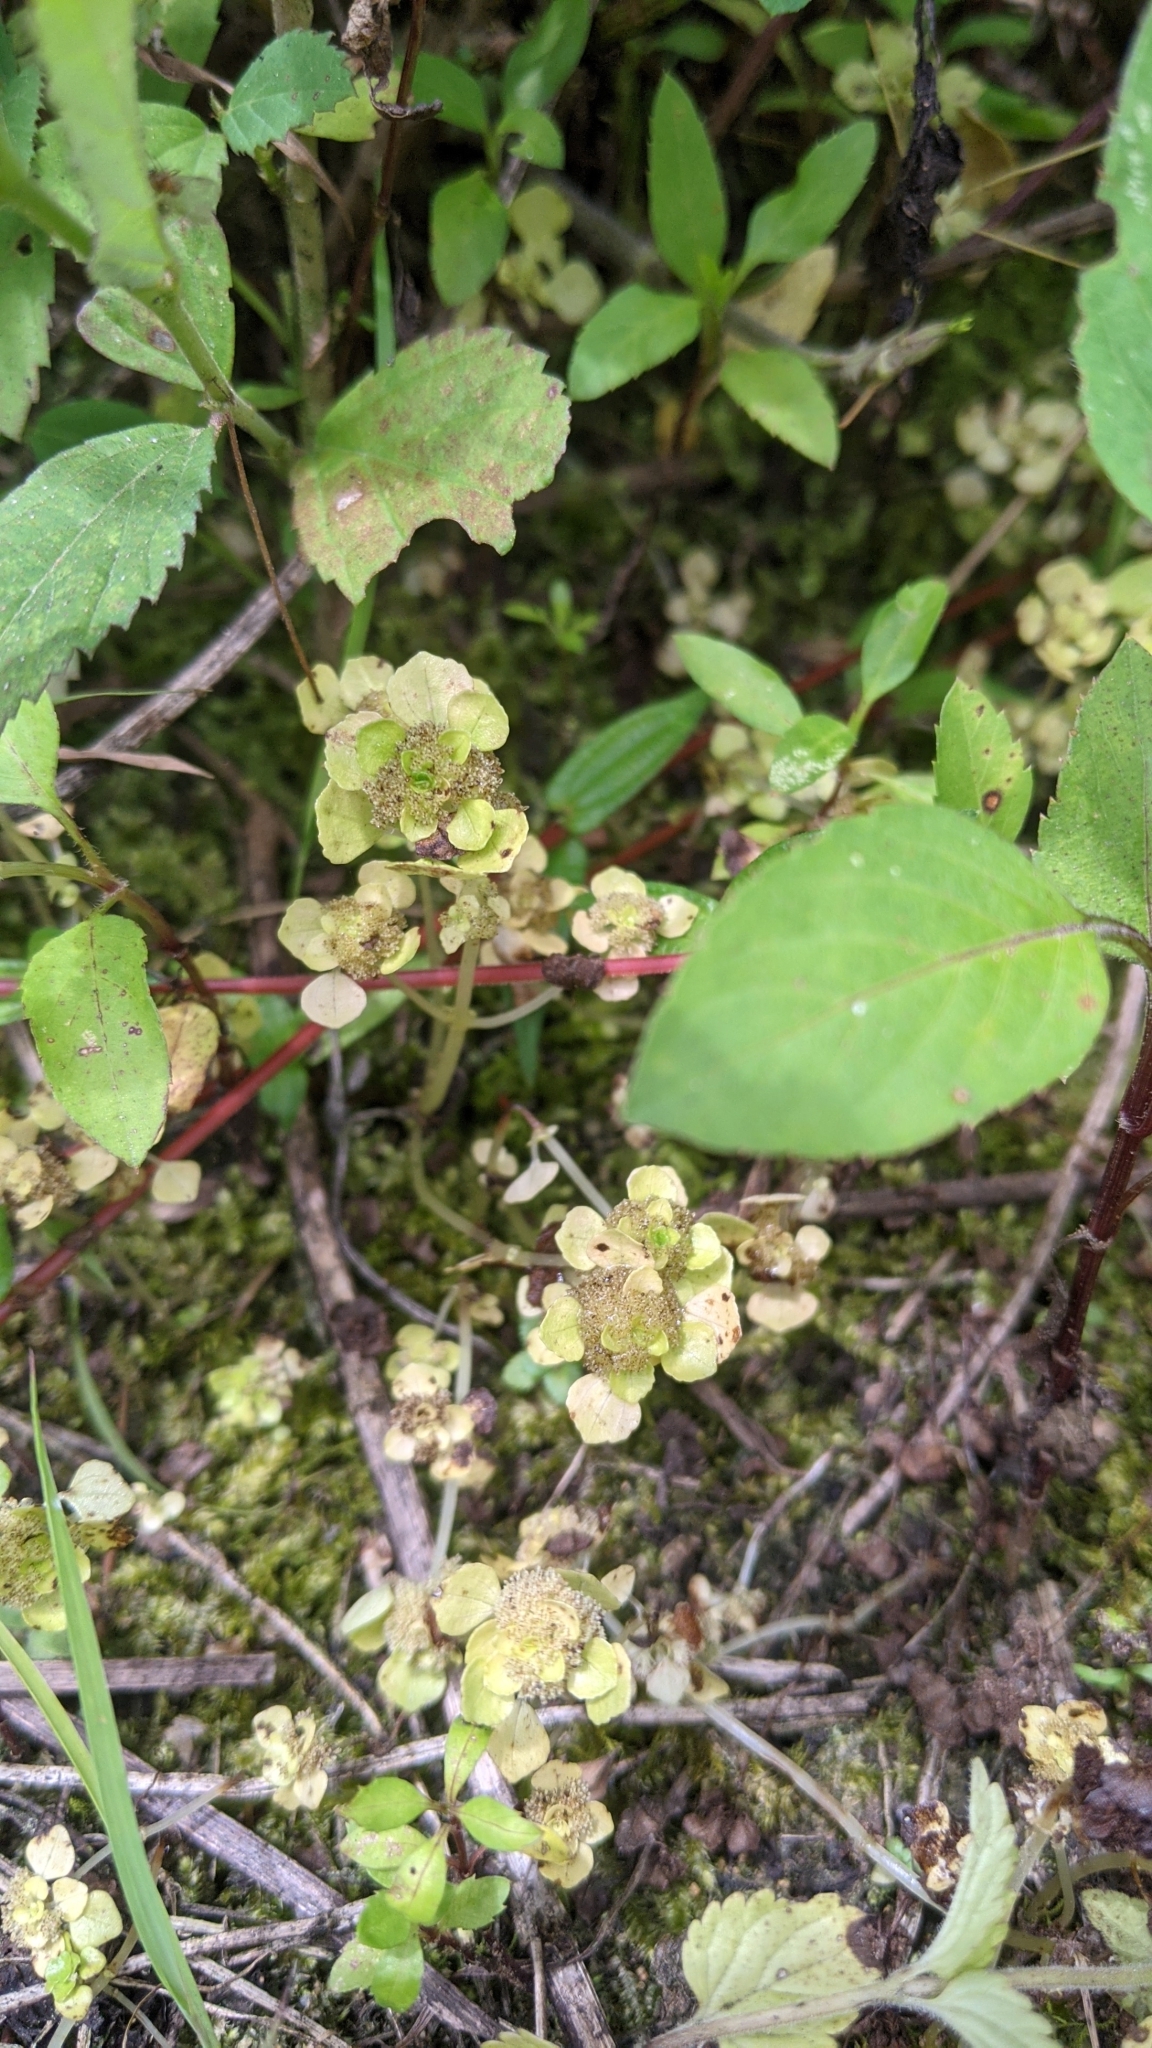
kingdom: Plantae
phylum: Tracheophyta
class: Magnoliopsida
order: Rosales
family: Urticaceae
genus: Pilea
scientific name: Pilea peploides
